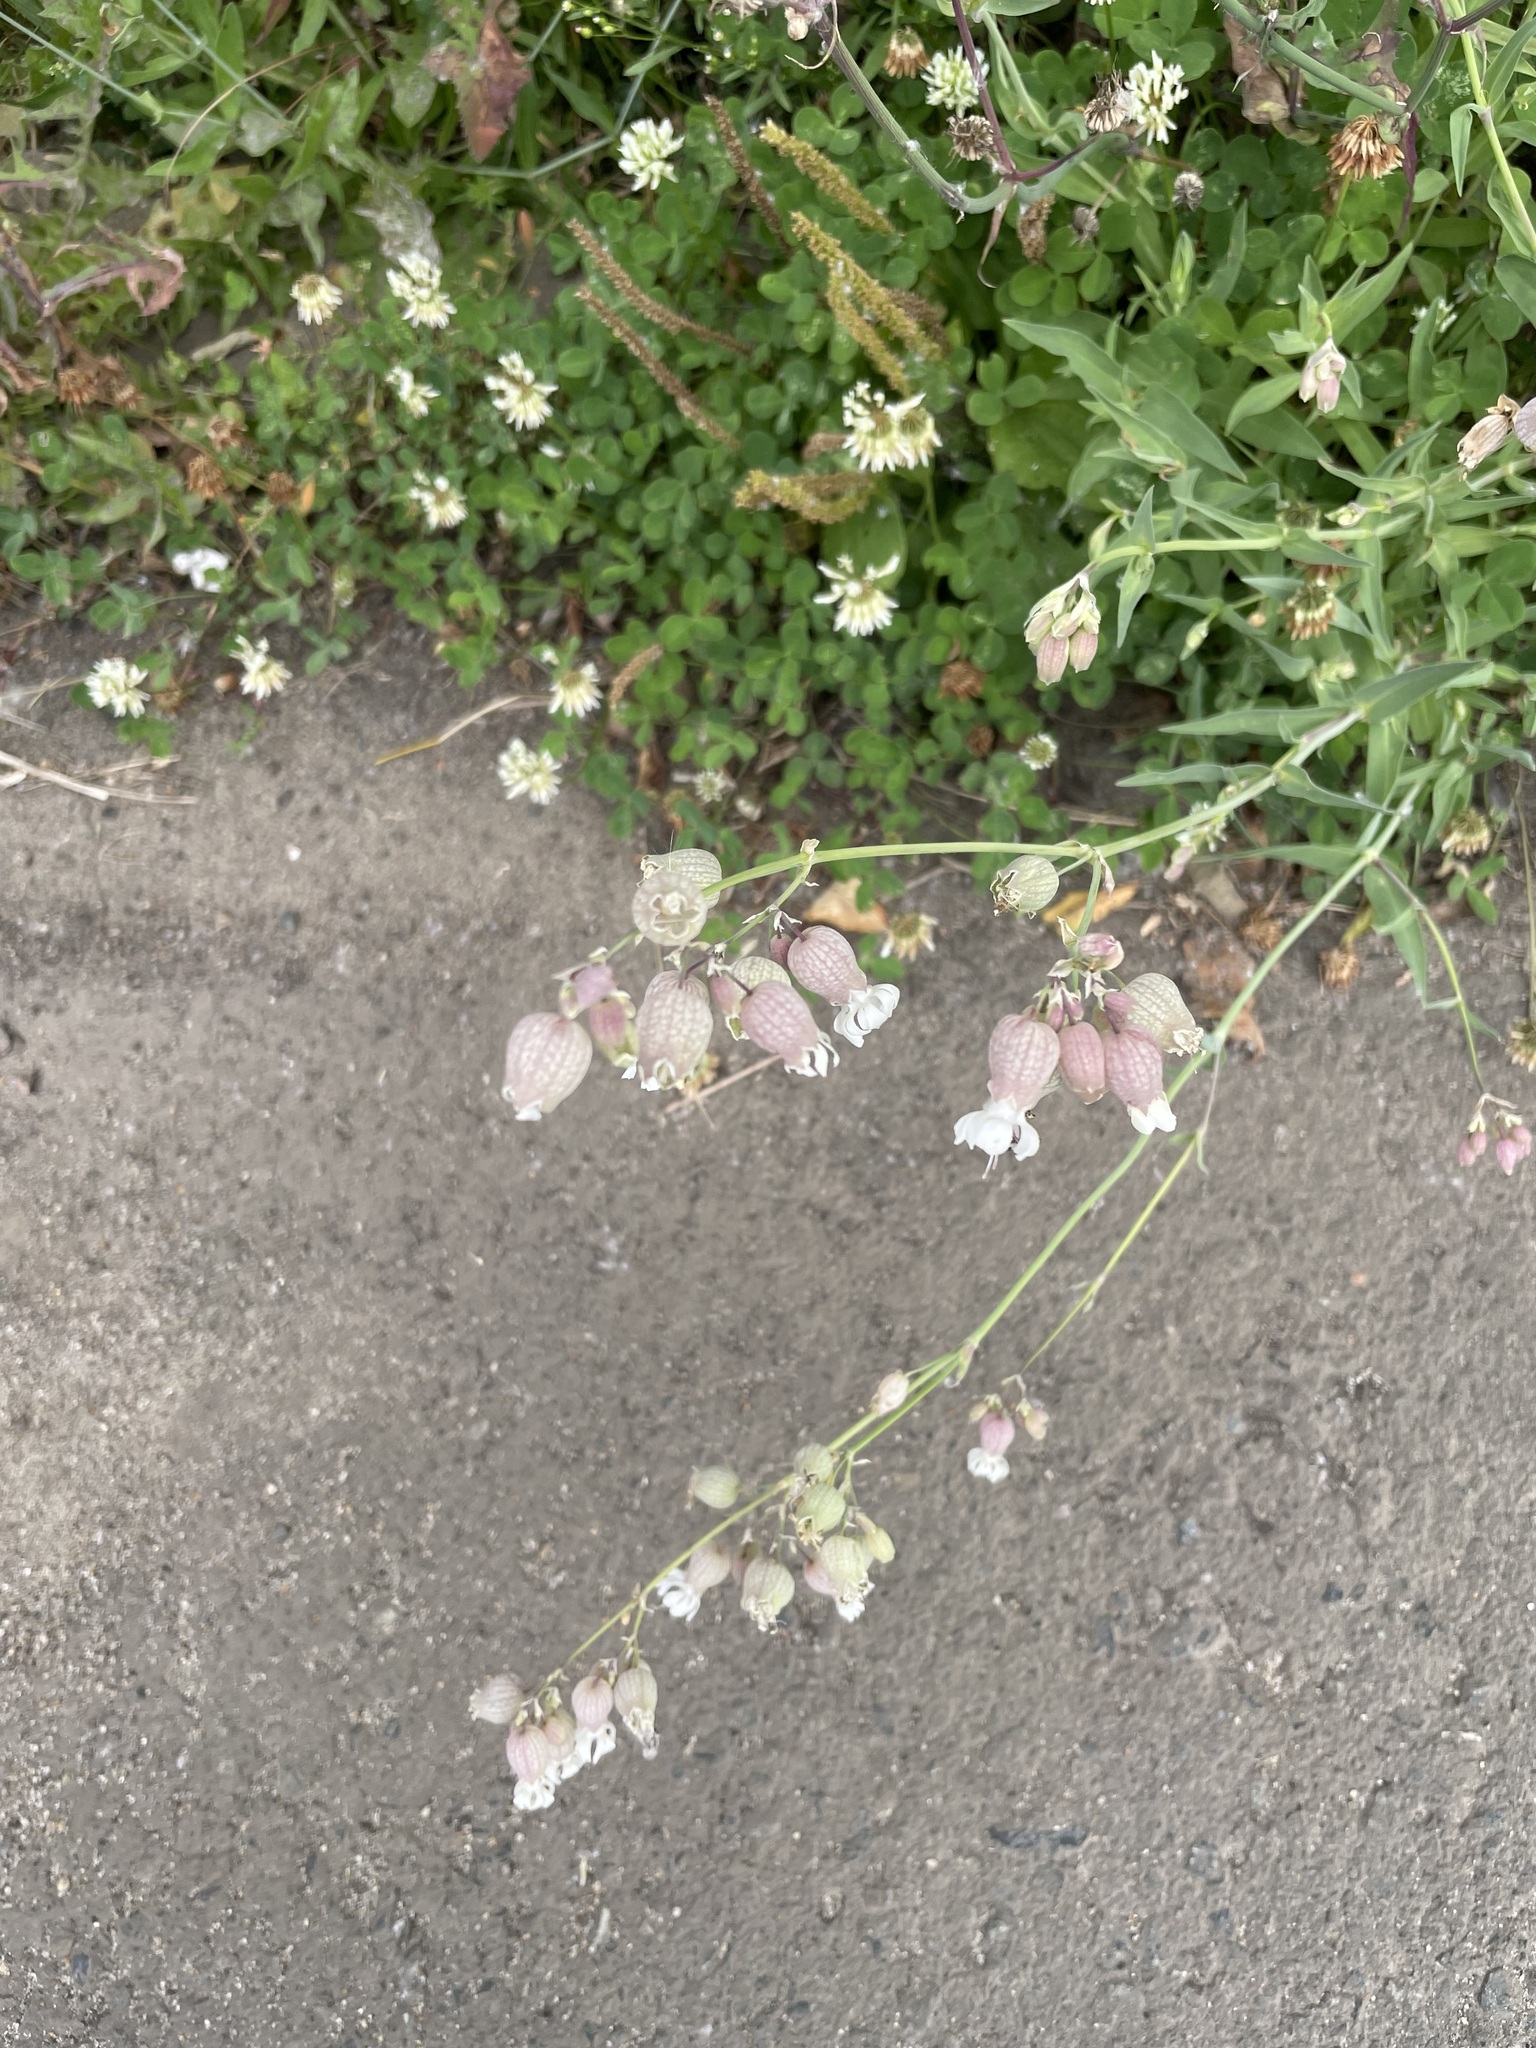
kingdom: Plantae
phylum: Tracheophyta
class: Magnoliopsida
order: Caryophyllales
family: Caryophyllaceae
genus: Silene
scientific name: Silene vulgaris
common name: Bladder campion
